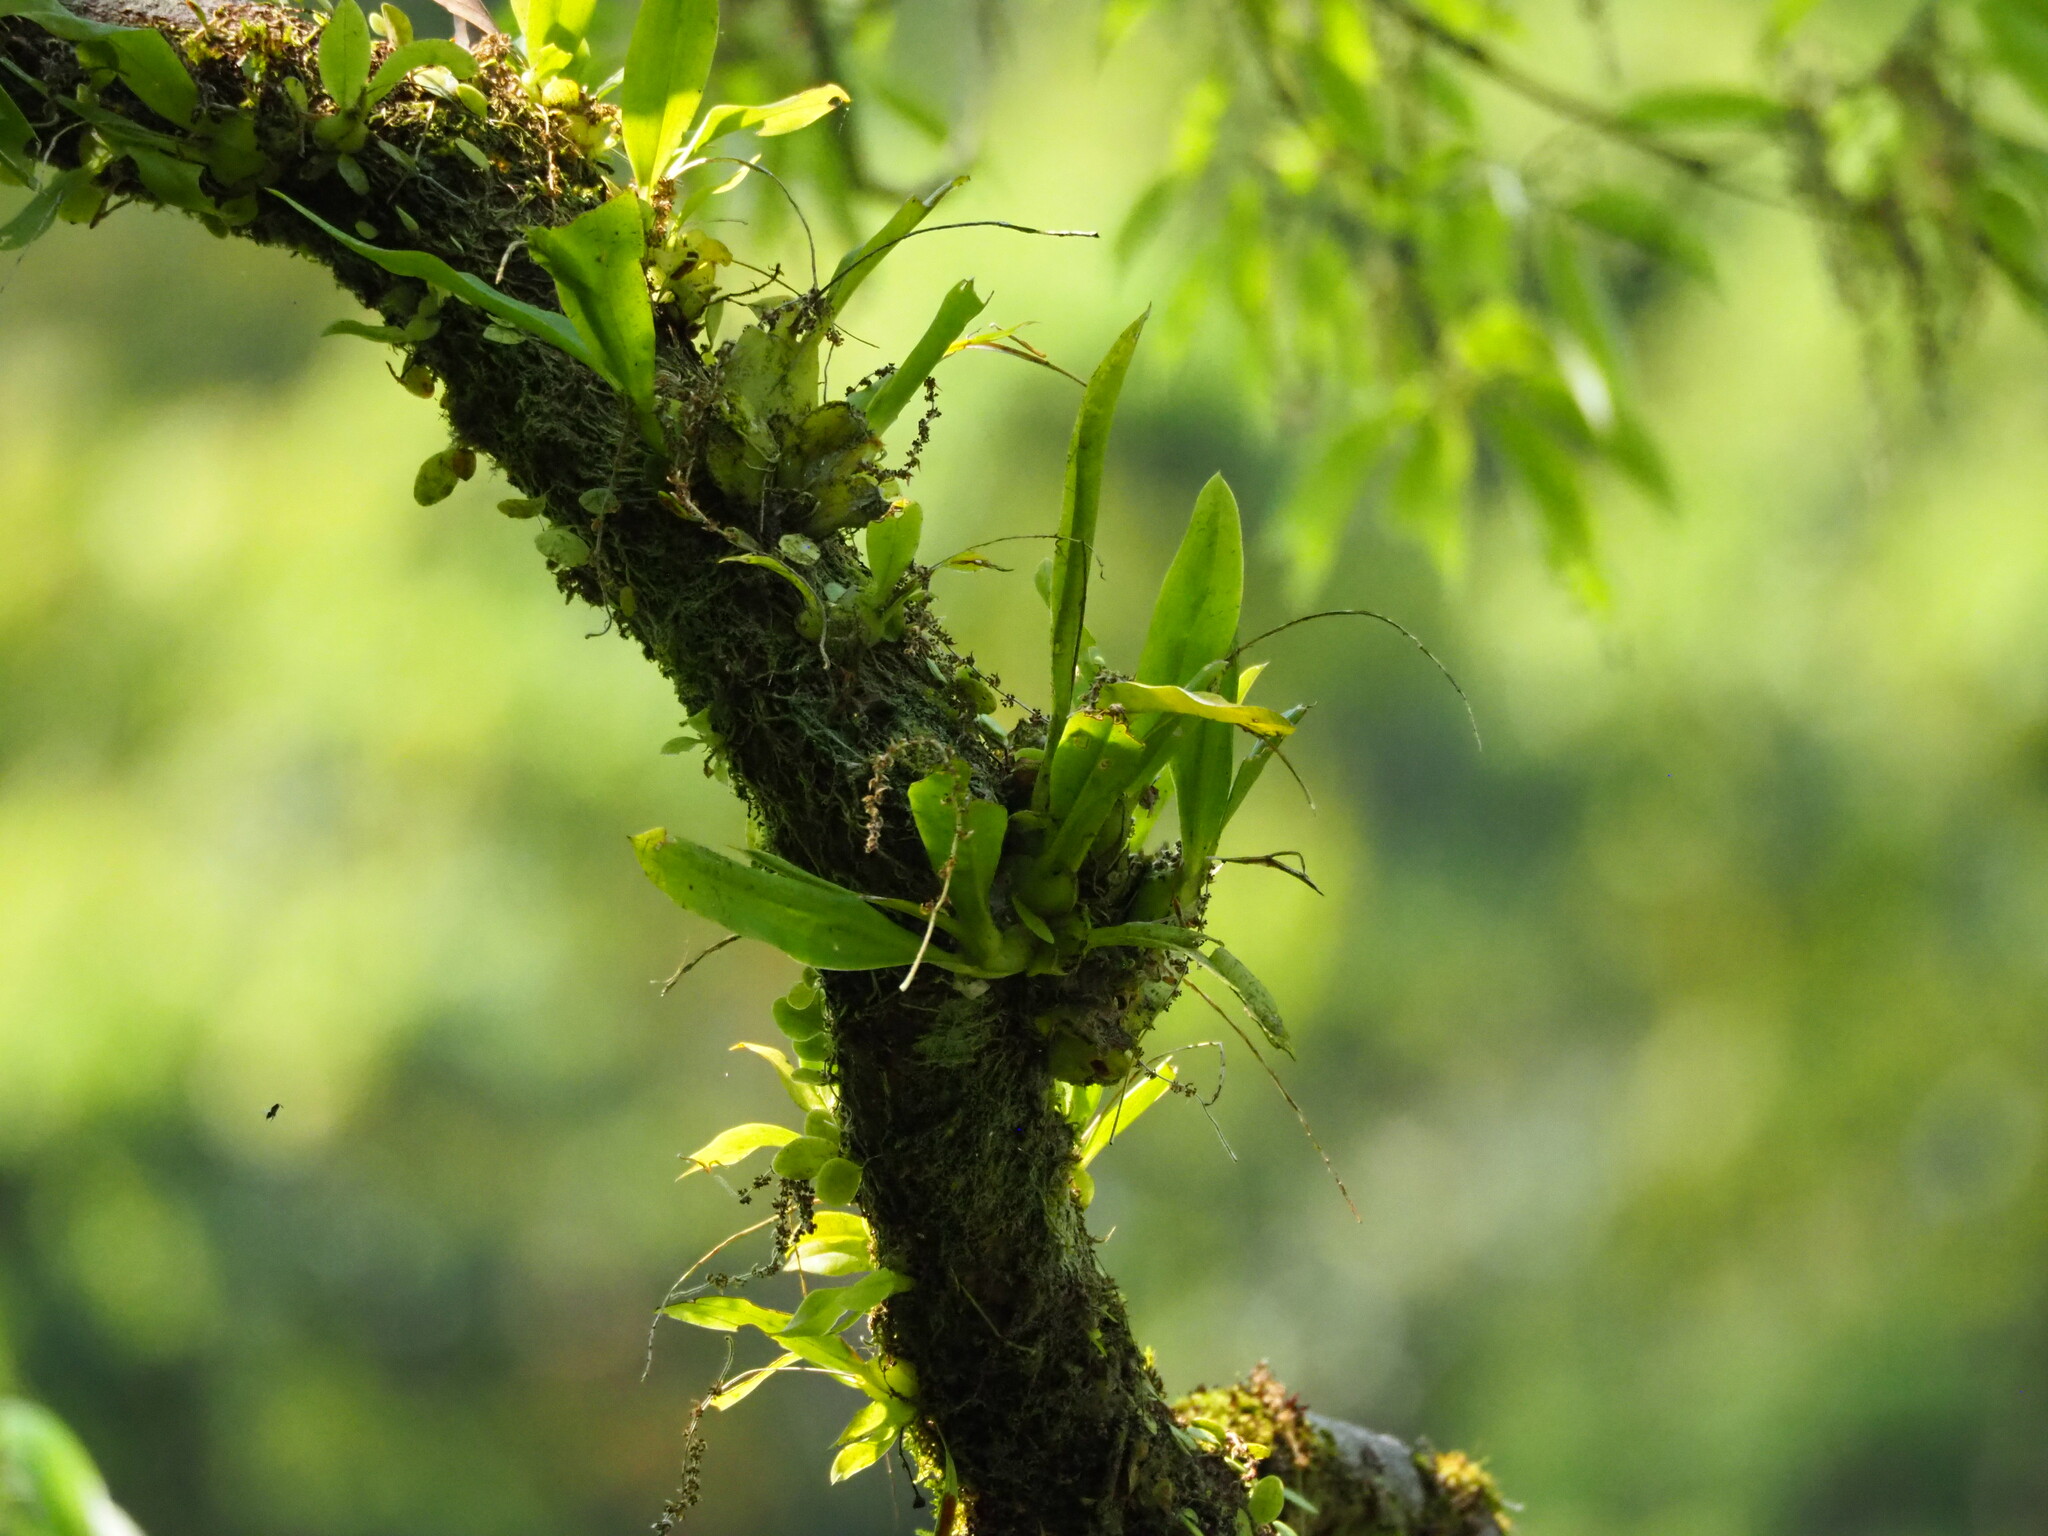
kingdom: Plantae
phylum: Tracheophyta
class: Liliopsida
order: Asparagales
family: Orchidaceae
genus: Liparis
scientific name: Liparis elliptica
